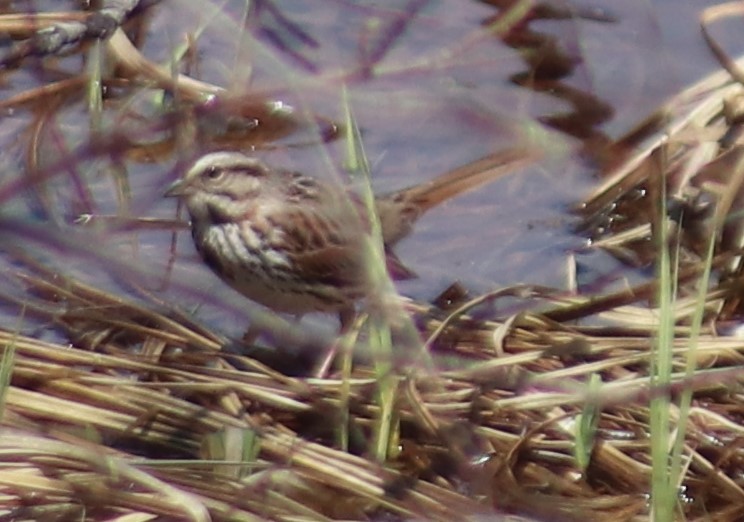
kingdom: Animalia
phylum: Chordata
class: Aves
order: Passeriformes
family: Passerellidae
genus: Melospiza
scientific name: Melospiza melodia
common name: Song sparrow
